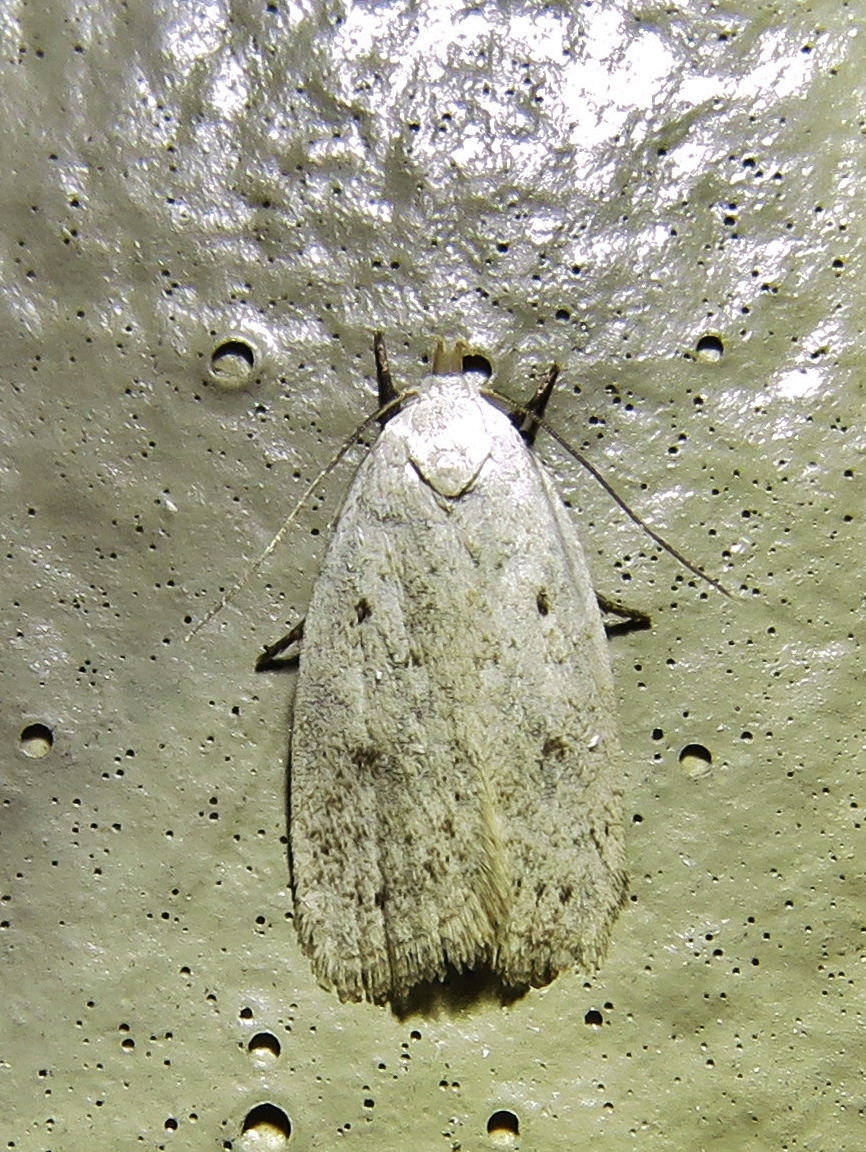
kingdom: Animalia
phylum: Arthropoda
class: Insecta
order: Lepidoptera
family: Oecophoridae
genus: Inga
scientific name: Inga cretacea
